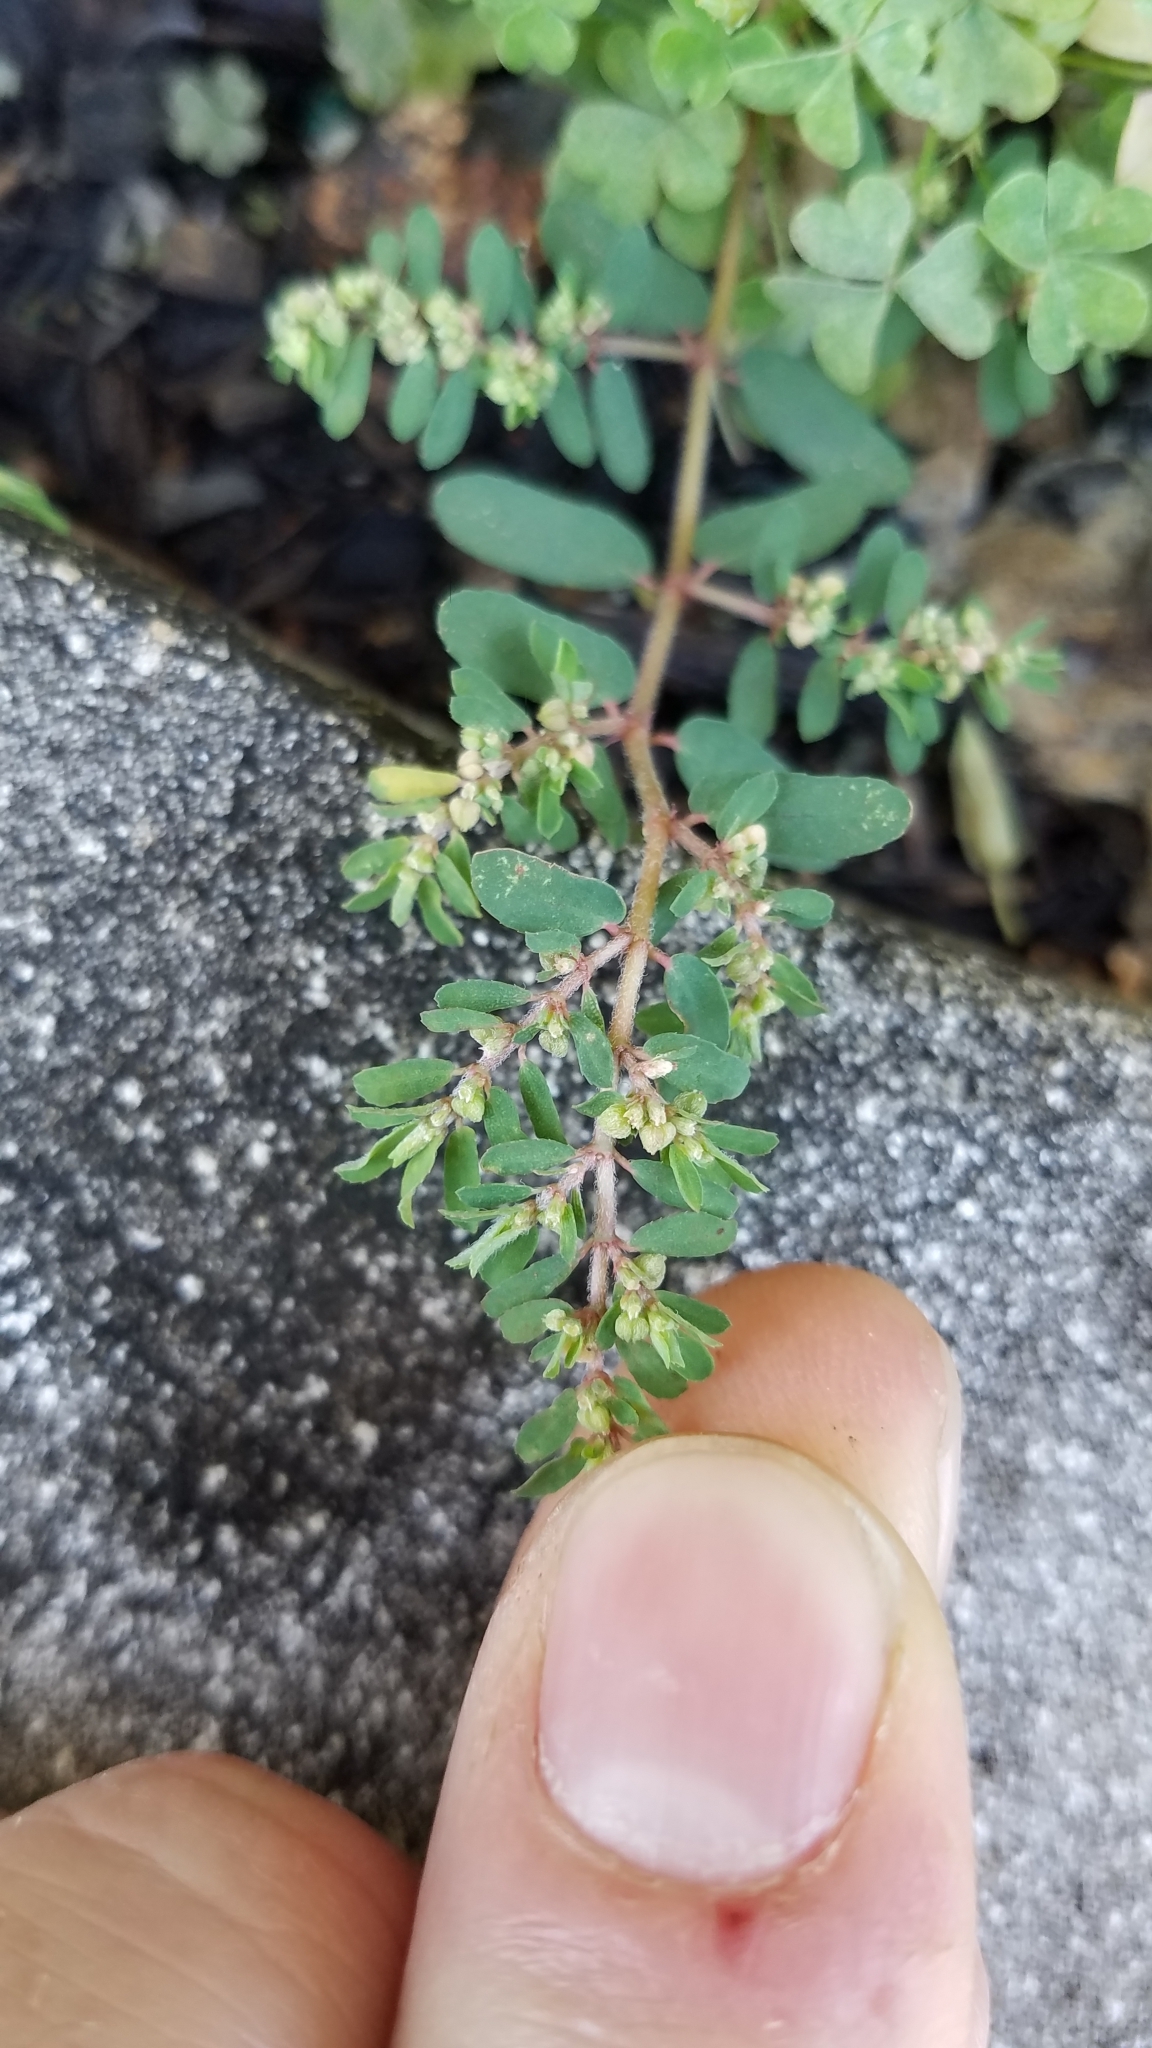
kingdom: Plantae
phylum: Tracheophyta
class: Magnoliopsida
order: Malpighiales
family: Euphorbiaceae
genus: Euphorbia
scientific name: Euphorbia maculata
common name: Spotted spurge
